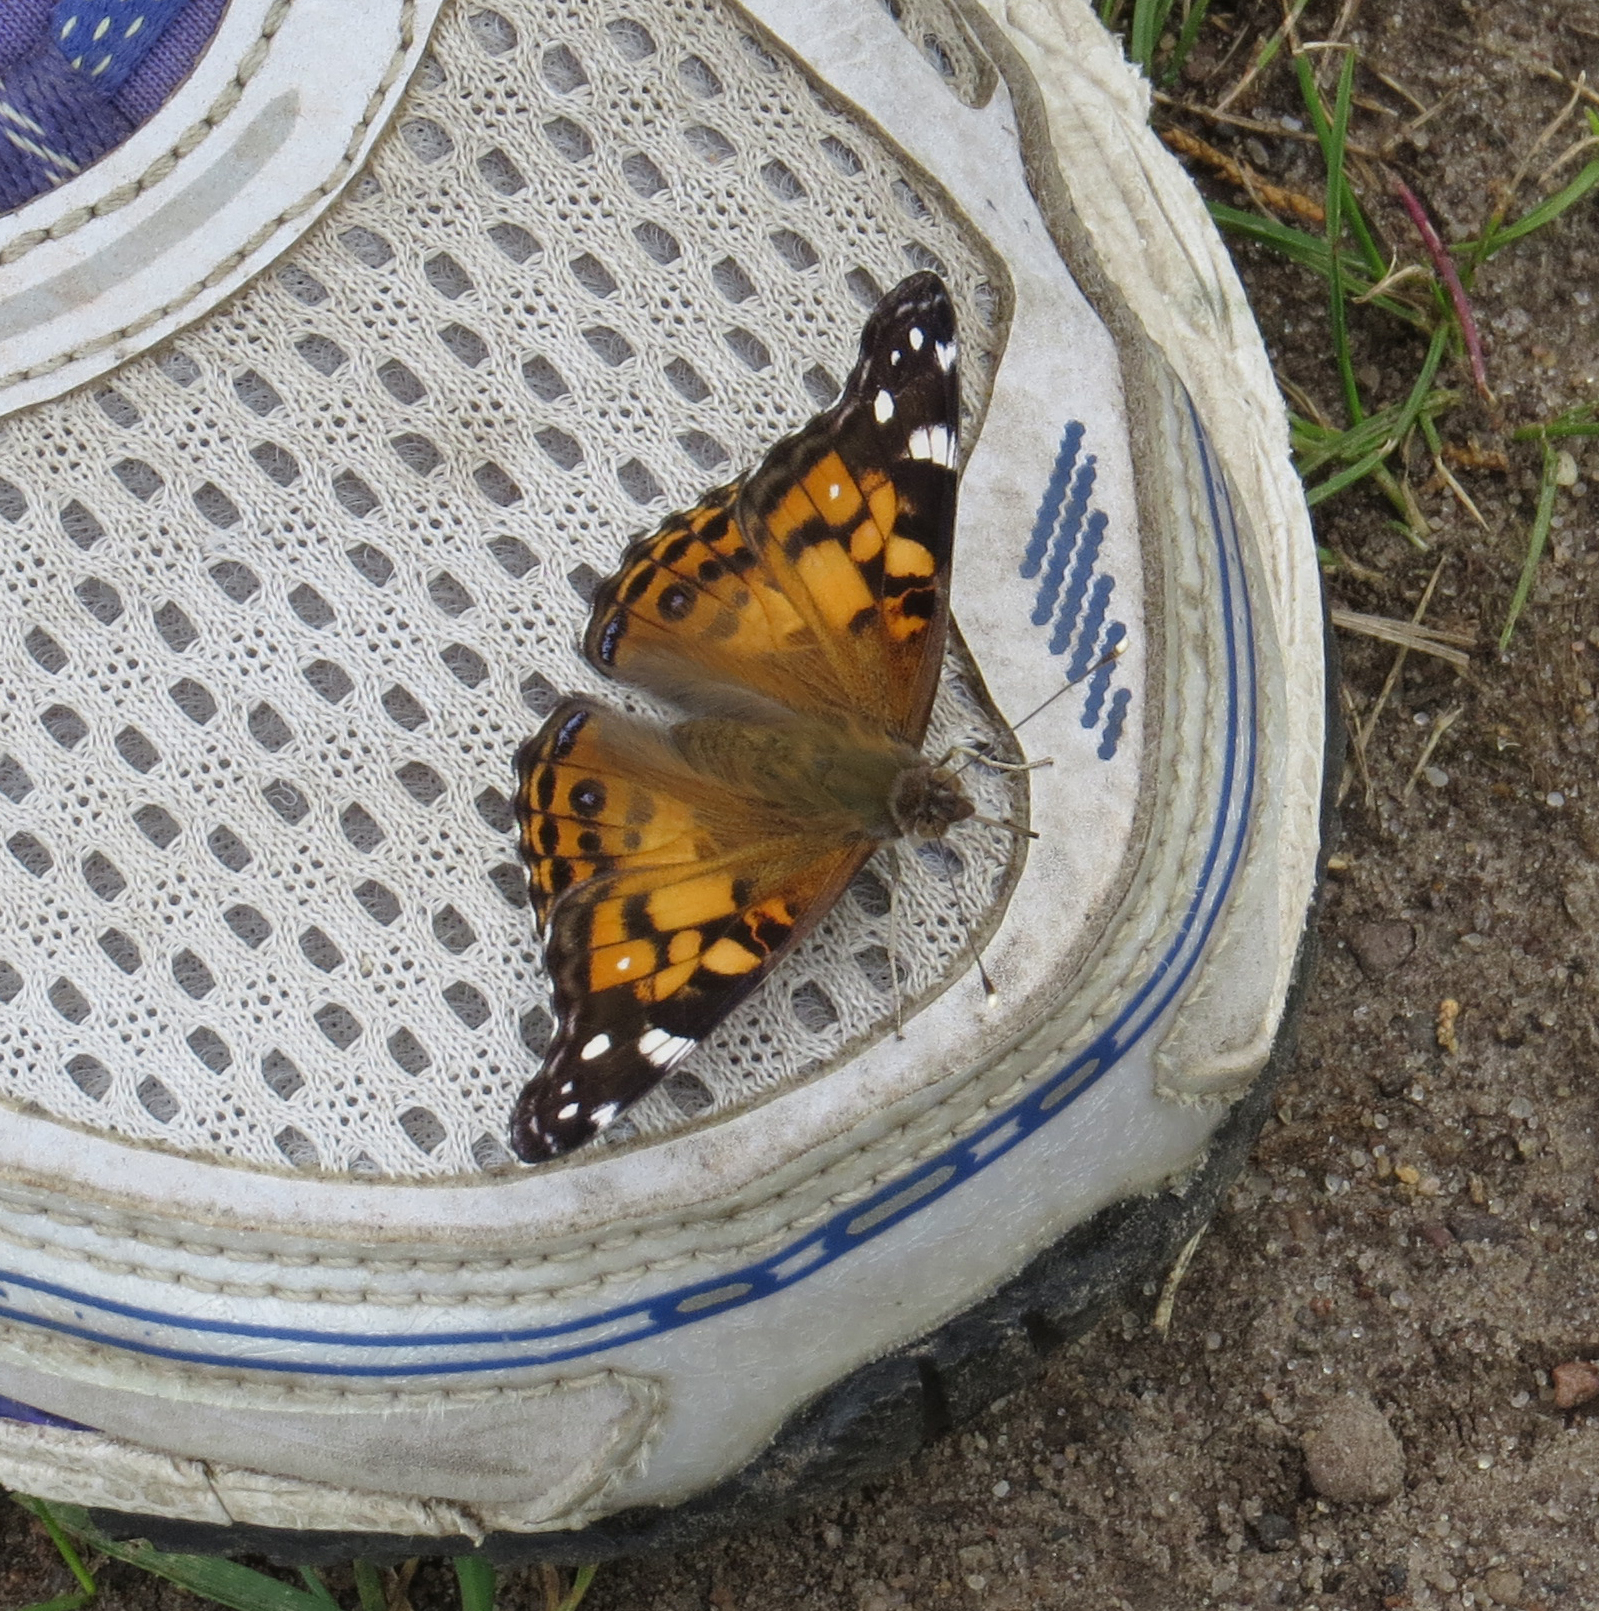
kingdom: Animalia
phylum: Arthropoda
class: Insecta
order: Lepidoptera
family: Nymphalidae
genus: Vanessa
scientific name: Vanessa virginiensis
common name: American lady
